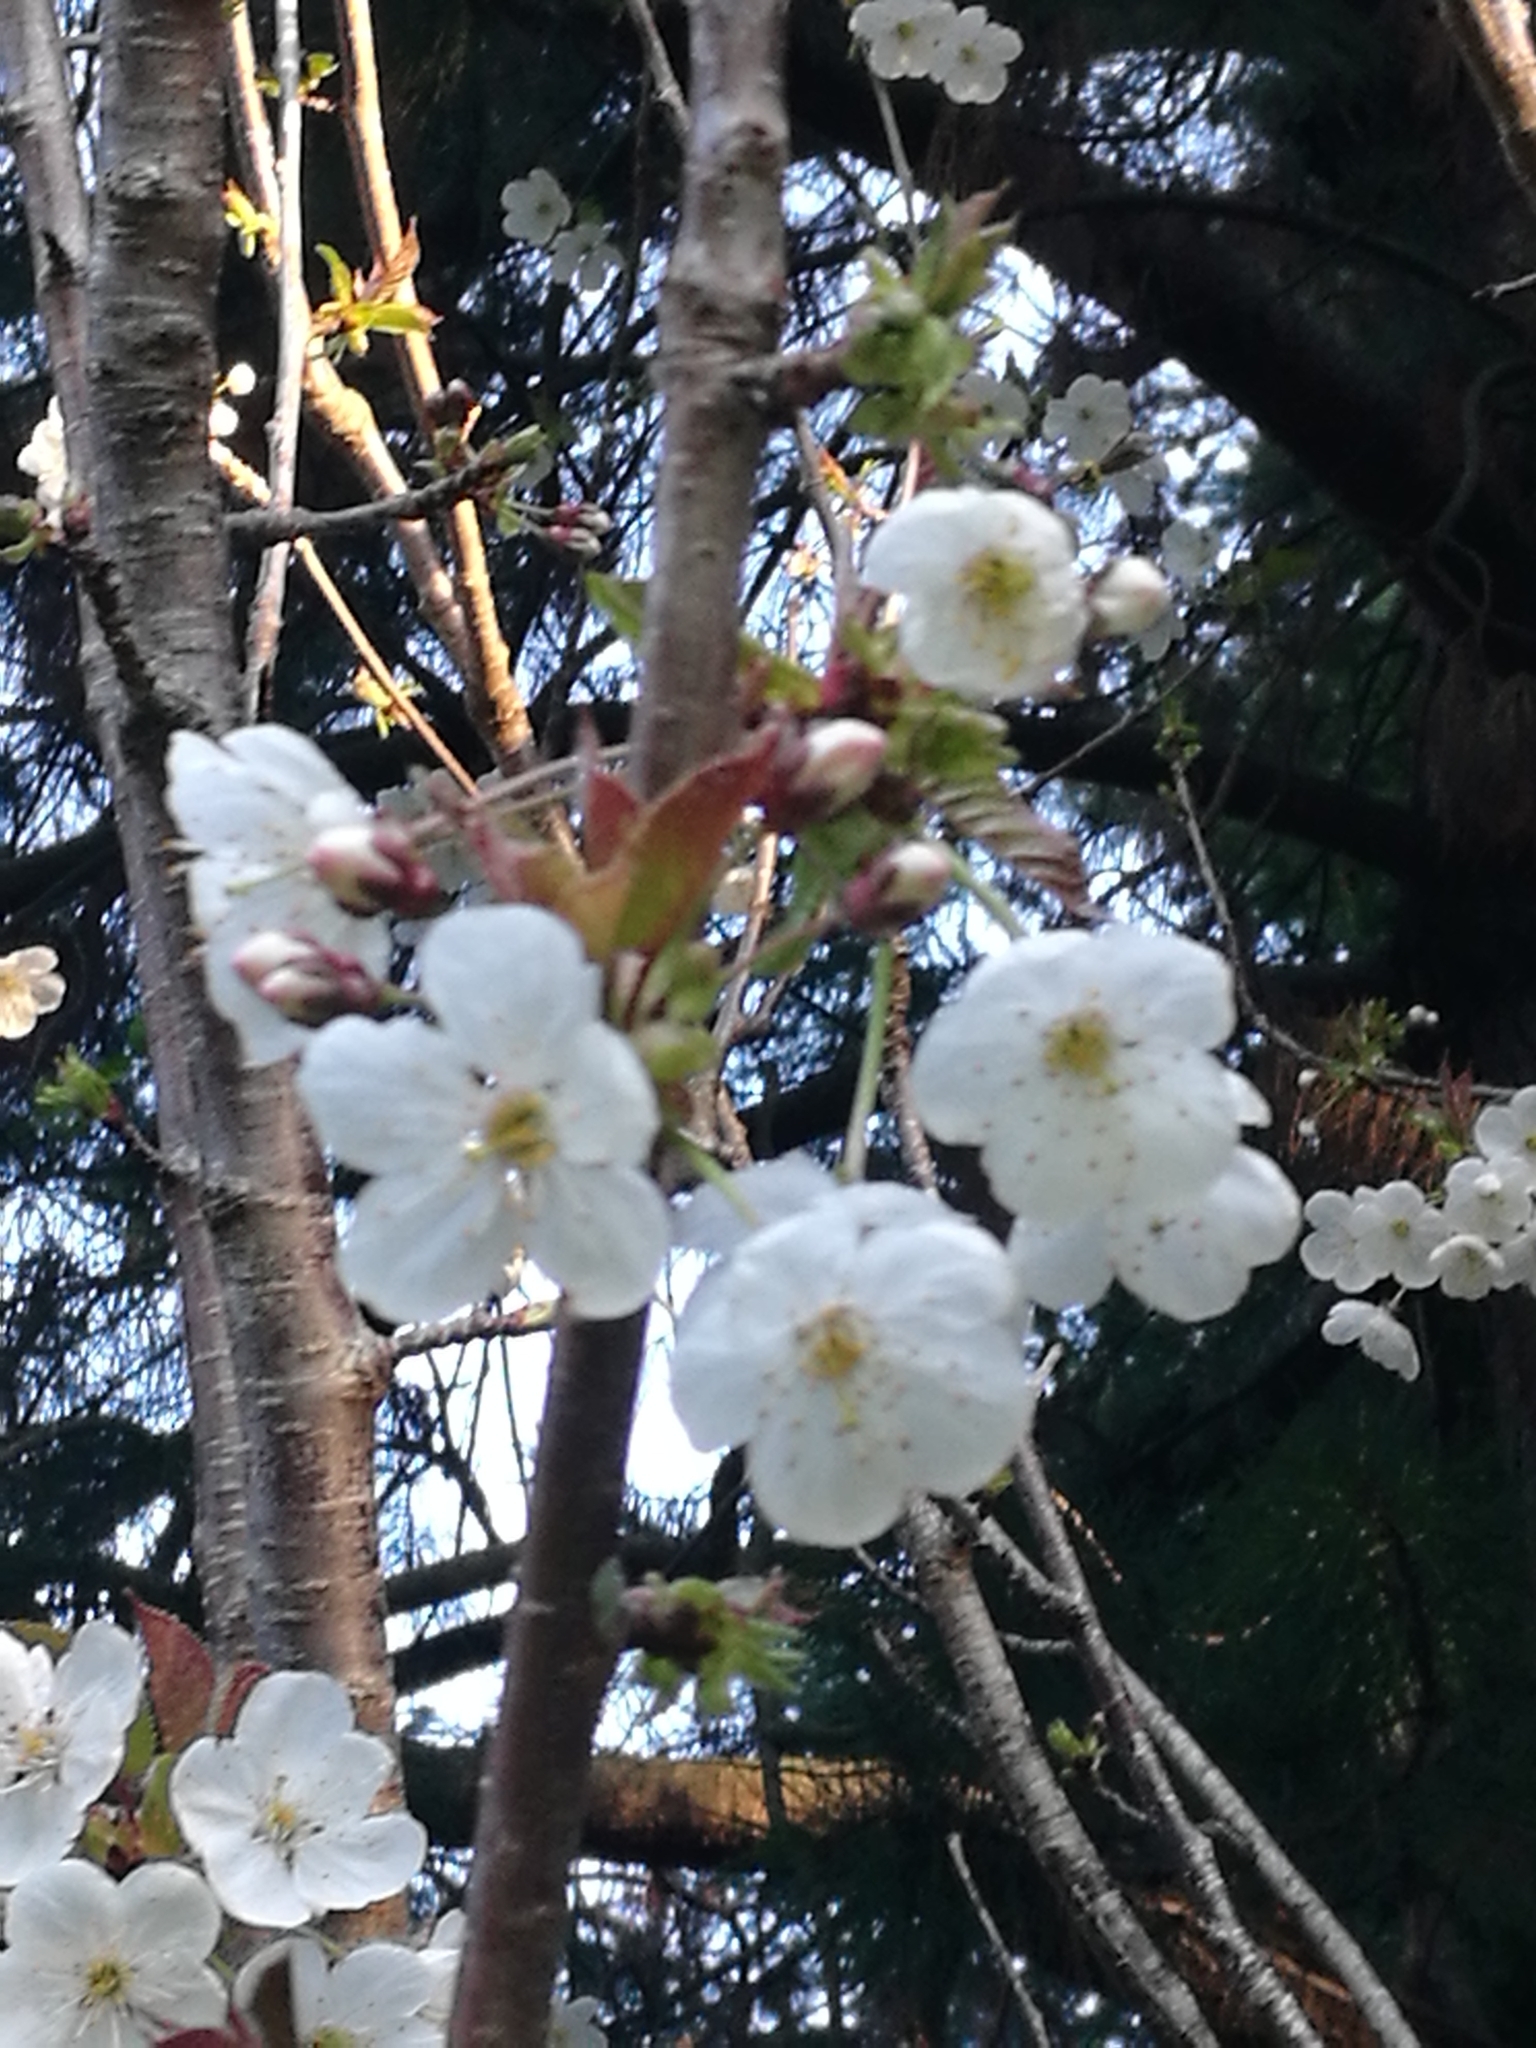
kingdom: Plantae
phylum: Tracheophyta
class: Magnoliopsida
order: Rosales
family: Rosaceae
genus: Prunus
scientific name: Prunus cerasifera
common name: Cherry plum
